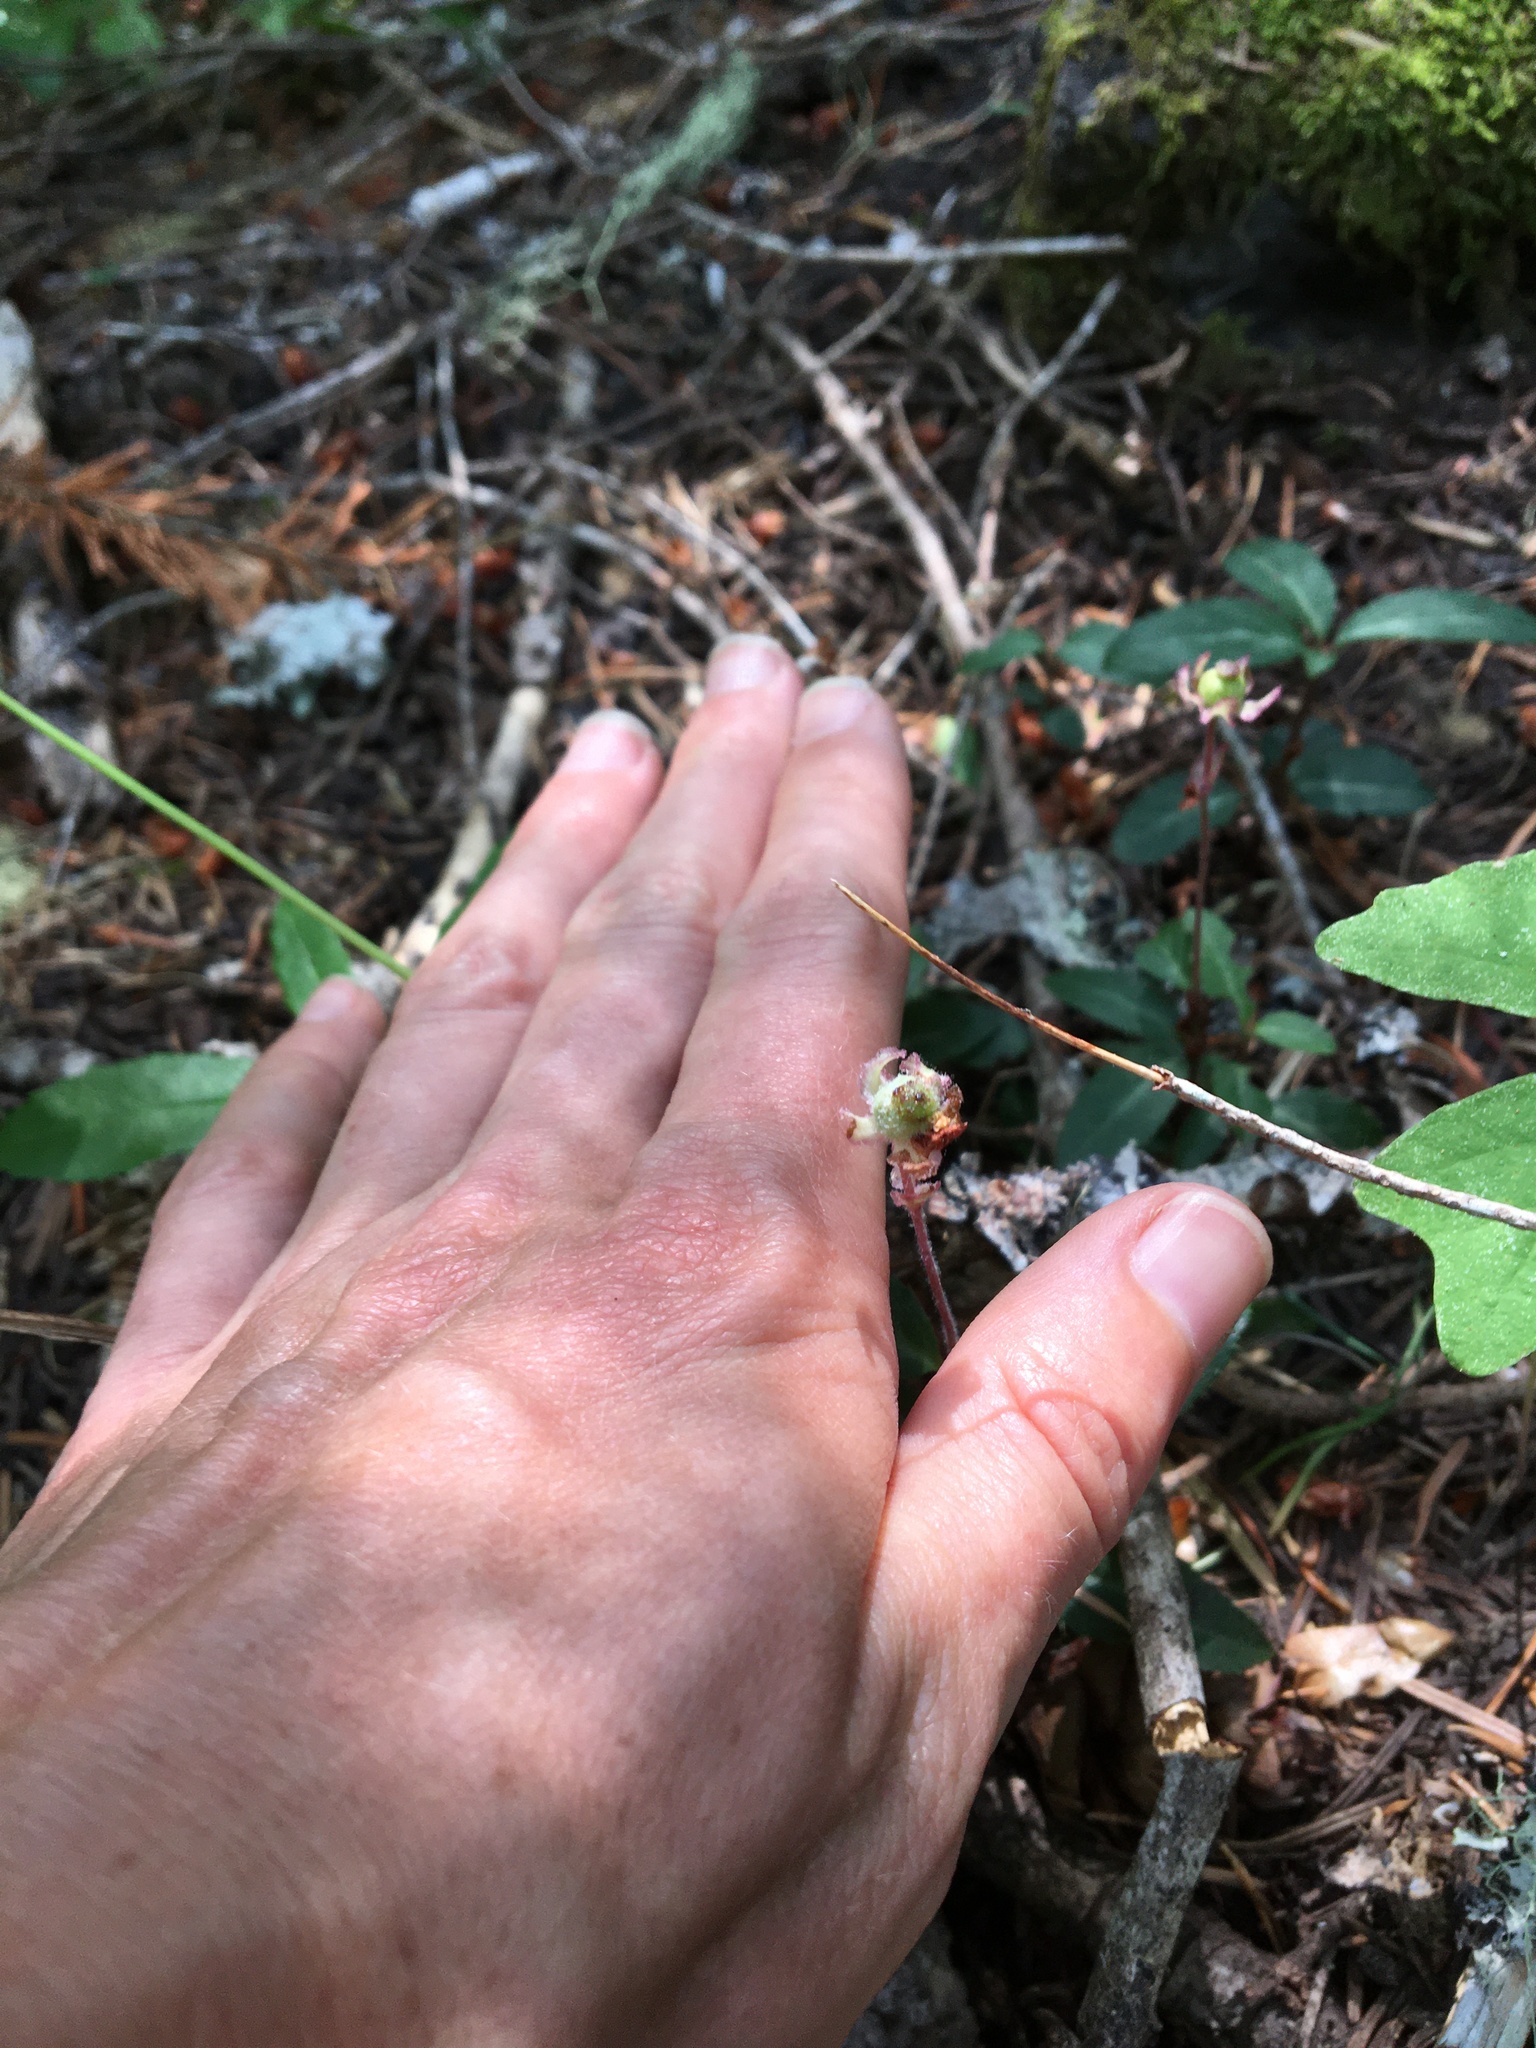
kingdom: Plantae
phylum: Tracheophyta
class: Magnoliopsida
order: Ericales
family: Ericaceae
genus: Chimaphila
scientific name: Chimaphila menziesii
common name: Menzies' pipsissewa
